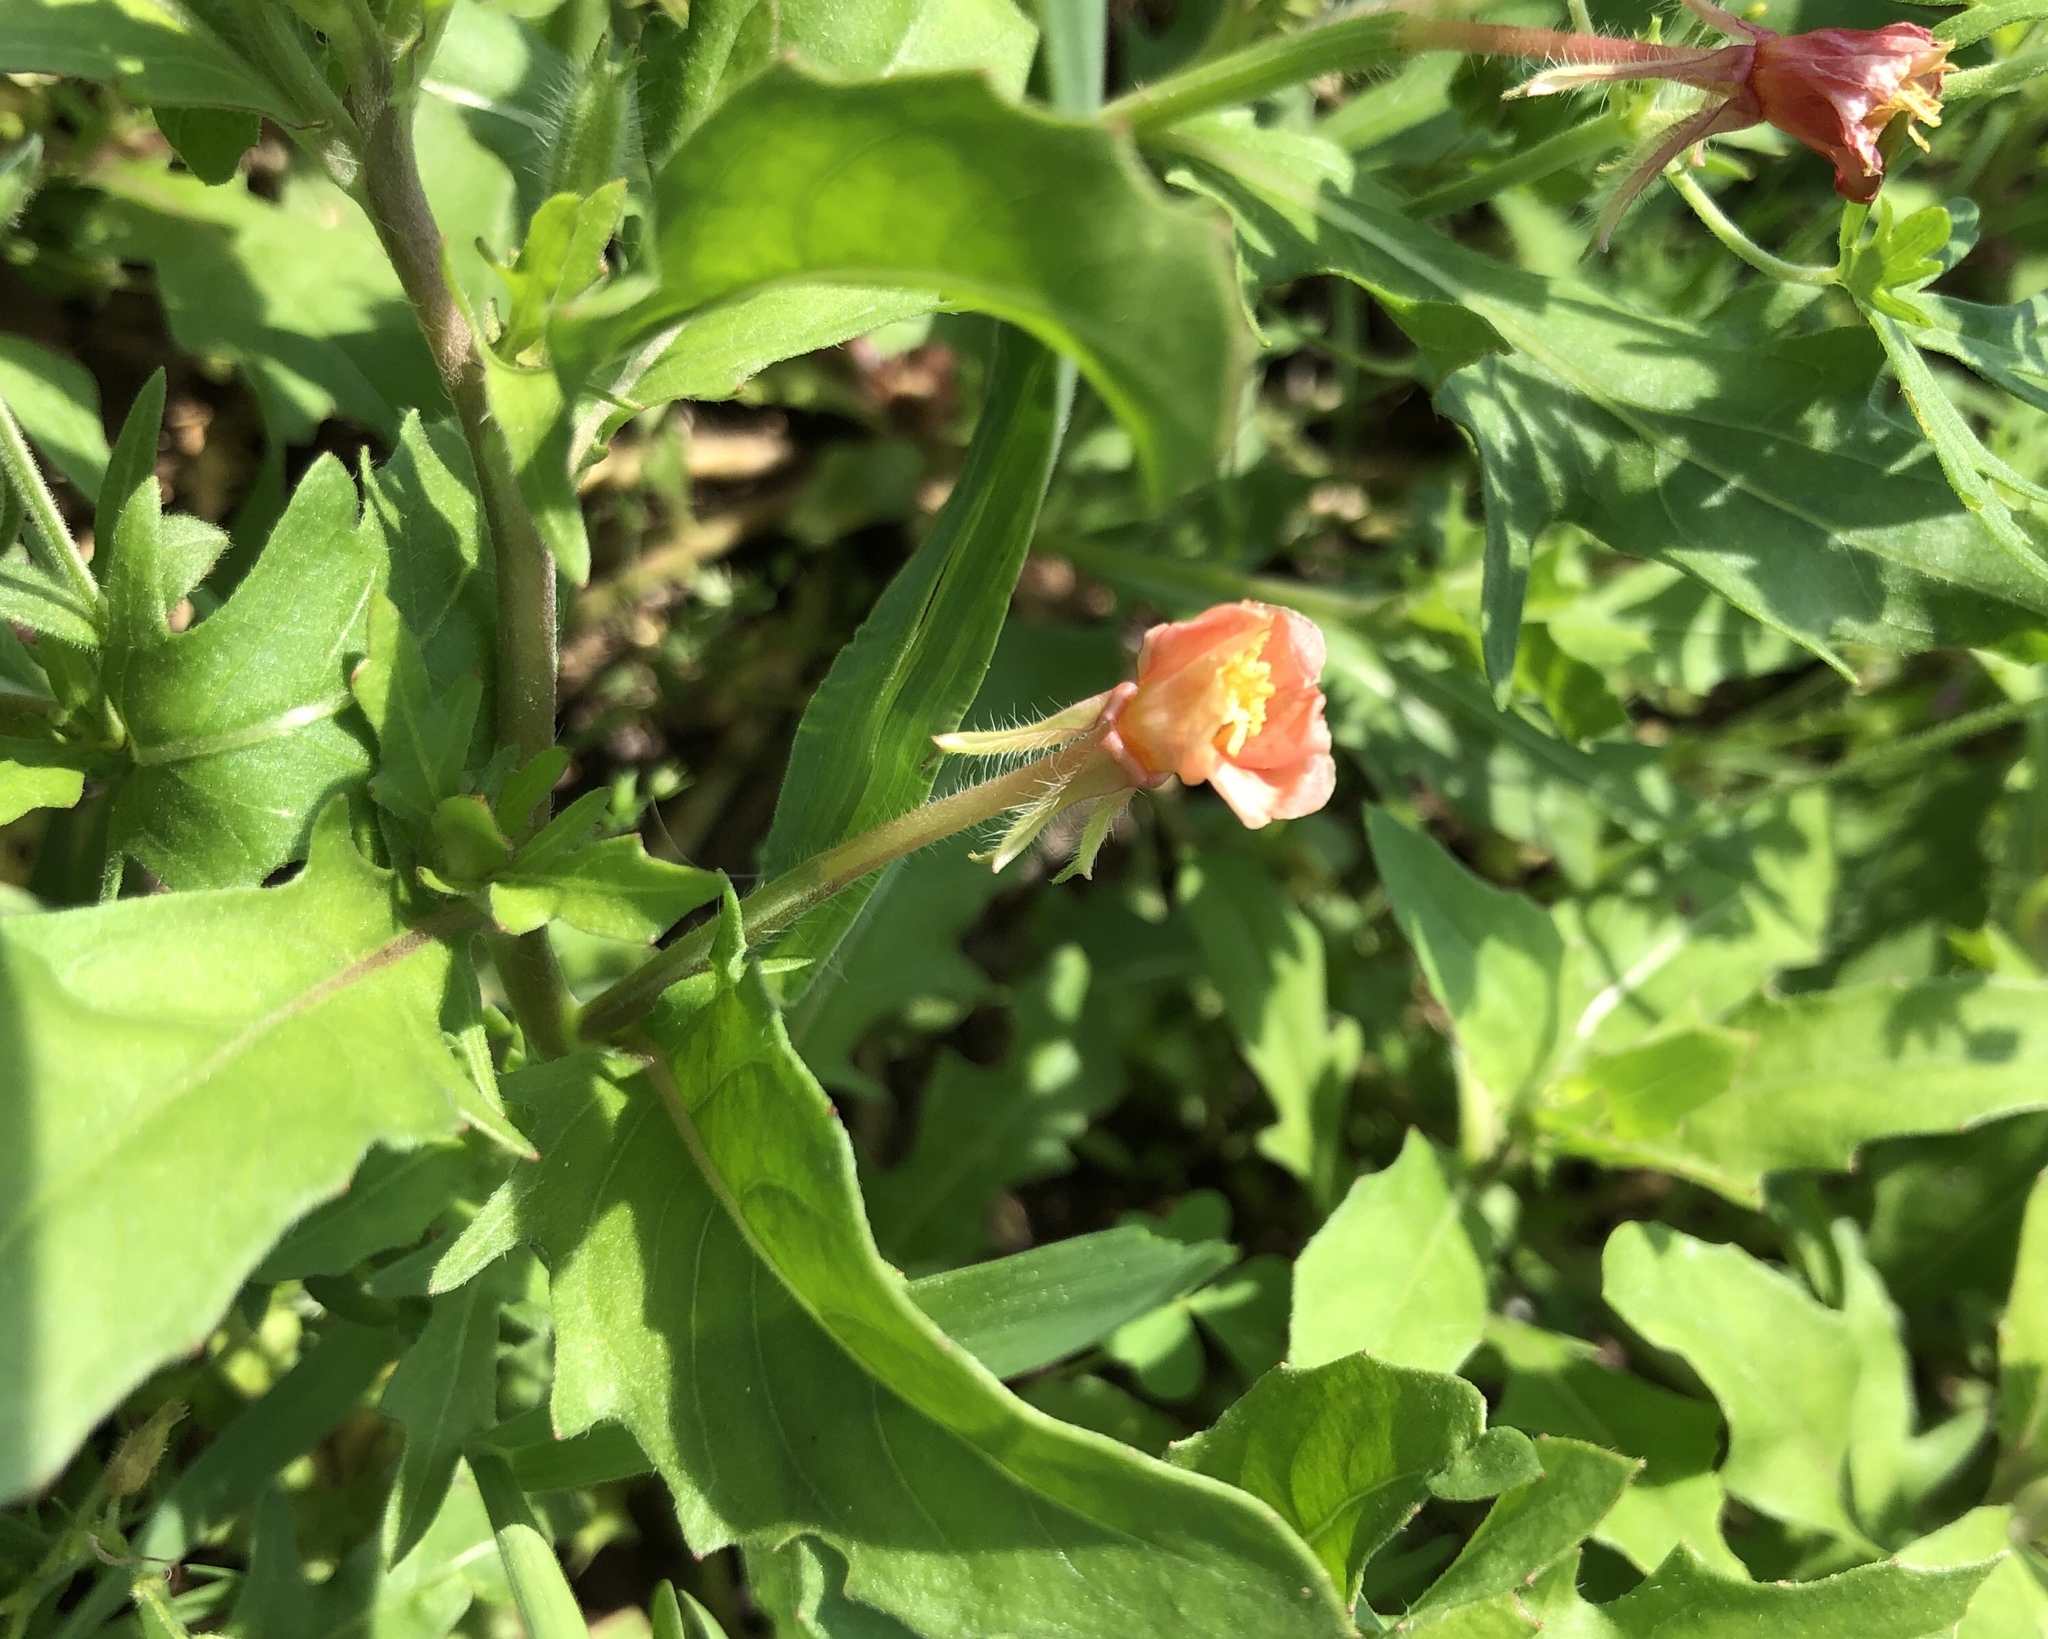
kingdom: Plantae
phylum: Tracheophyta
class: Magnoliopsida
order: Myrtales
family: Onagraceae
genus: Oenothera
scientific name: Oenothera laciniata
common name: Cut-leaved evening-primrose
